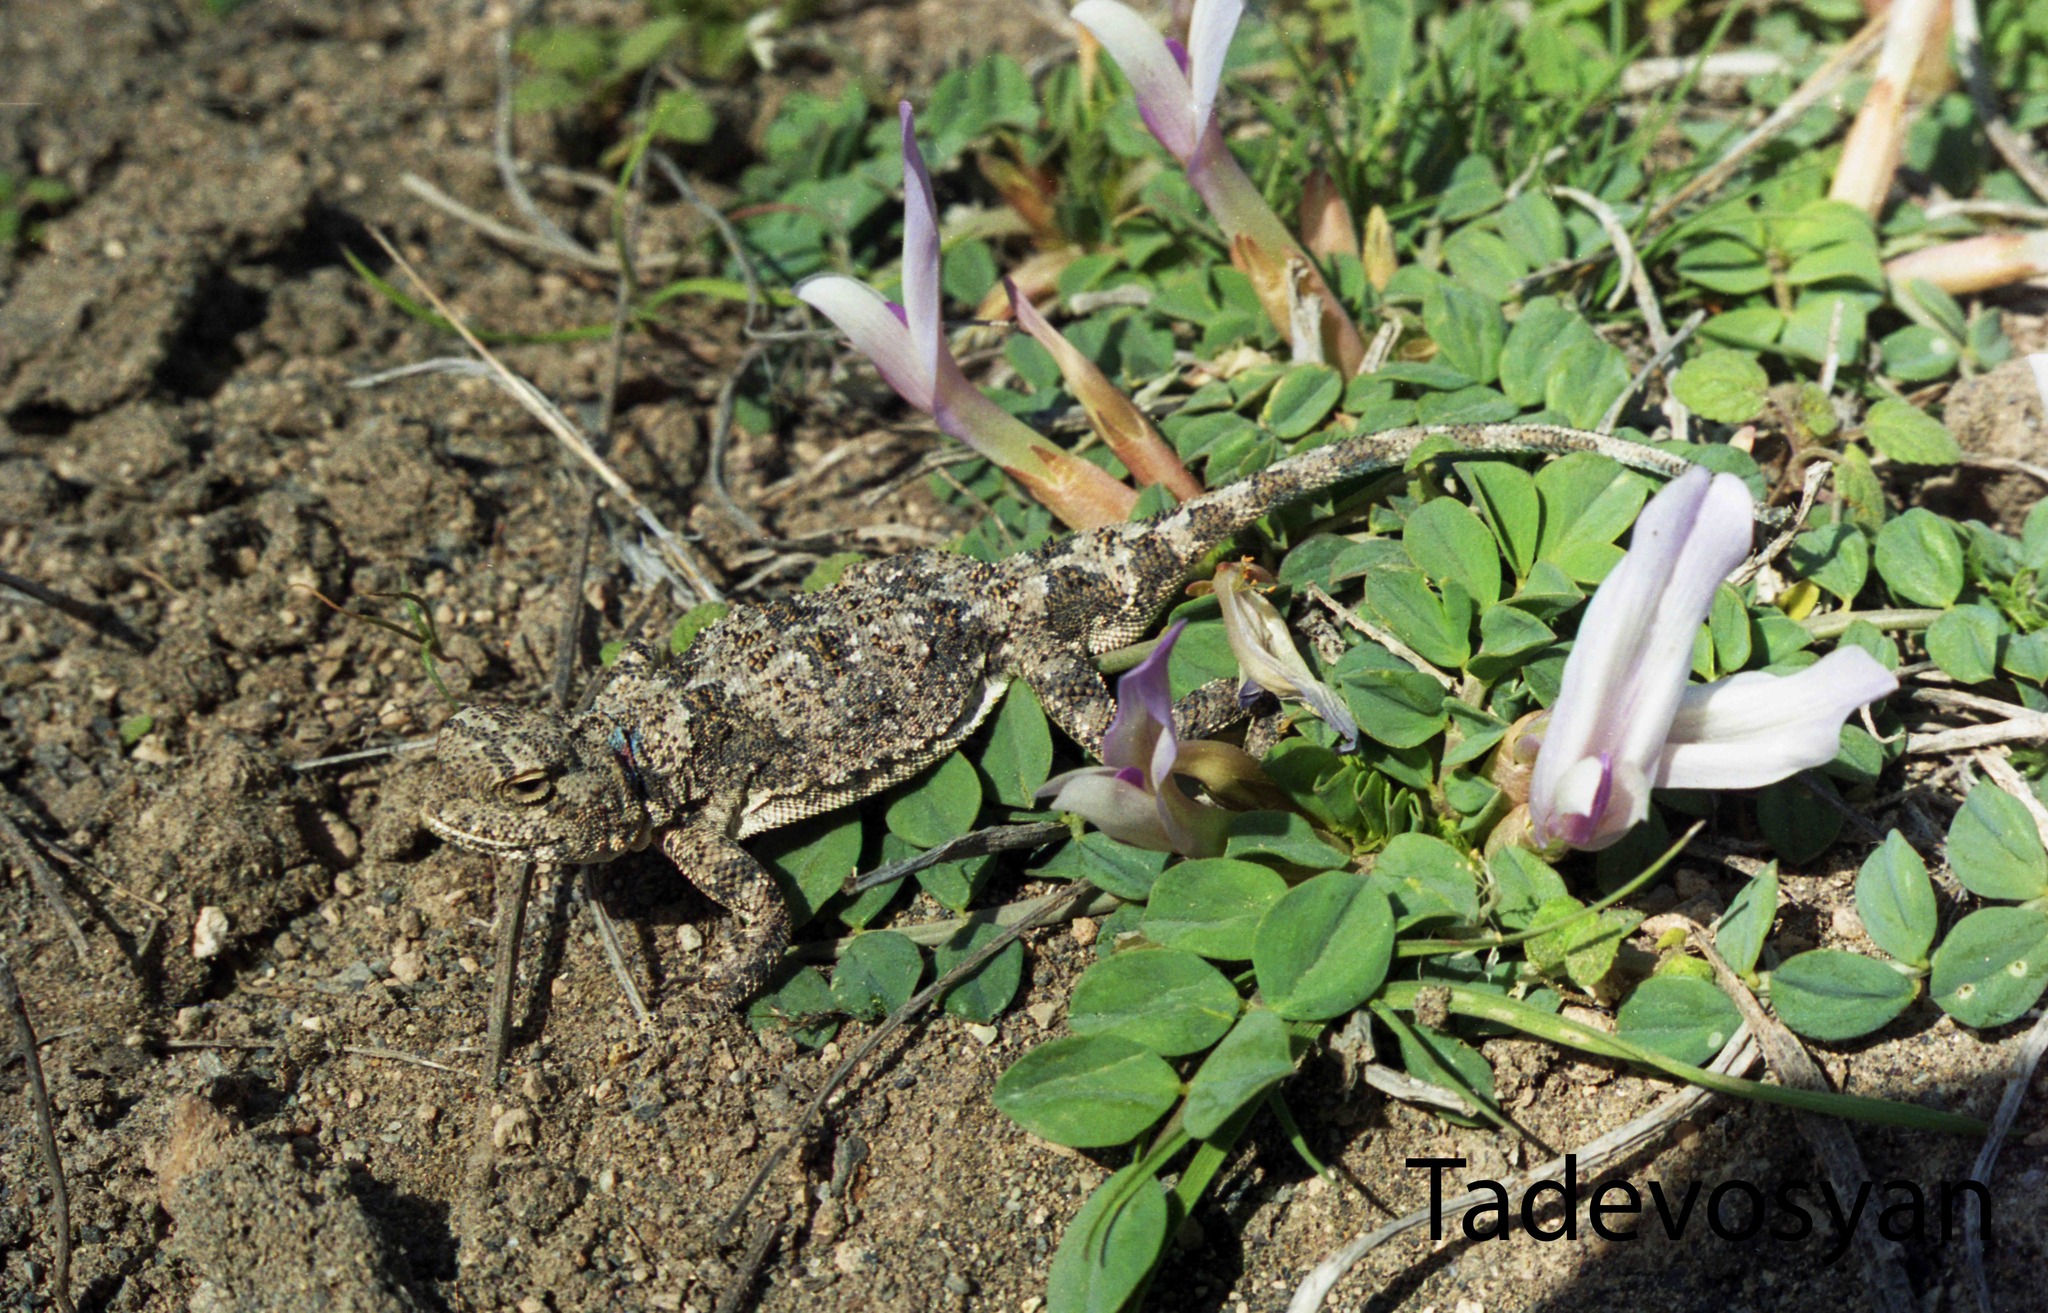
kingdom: Animalia
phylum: Chordata
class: Squamata
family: Agamidae
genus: Phrynocephalus
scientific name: Phrynocephalus horvathi
